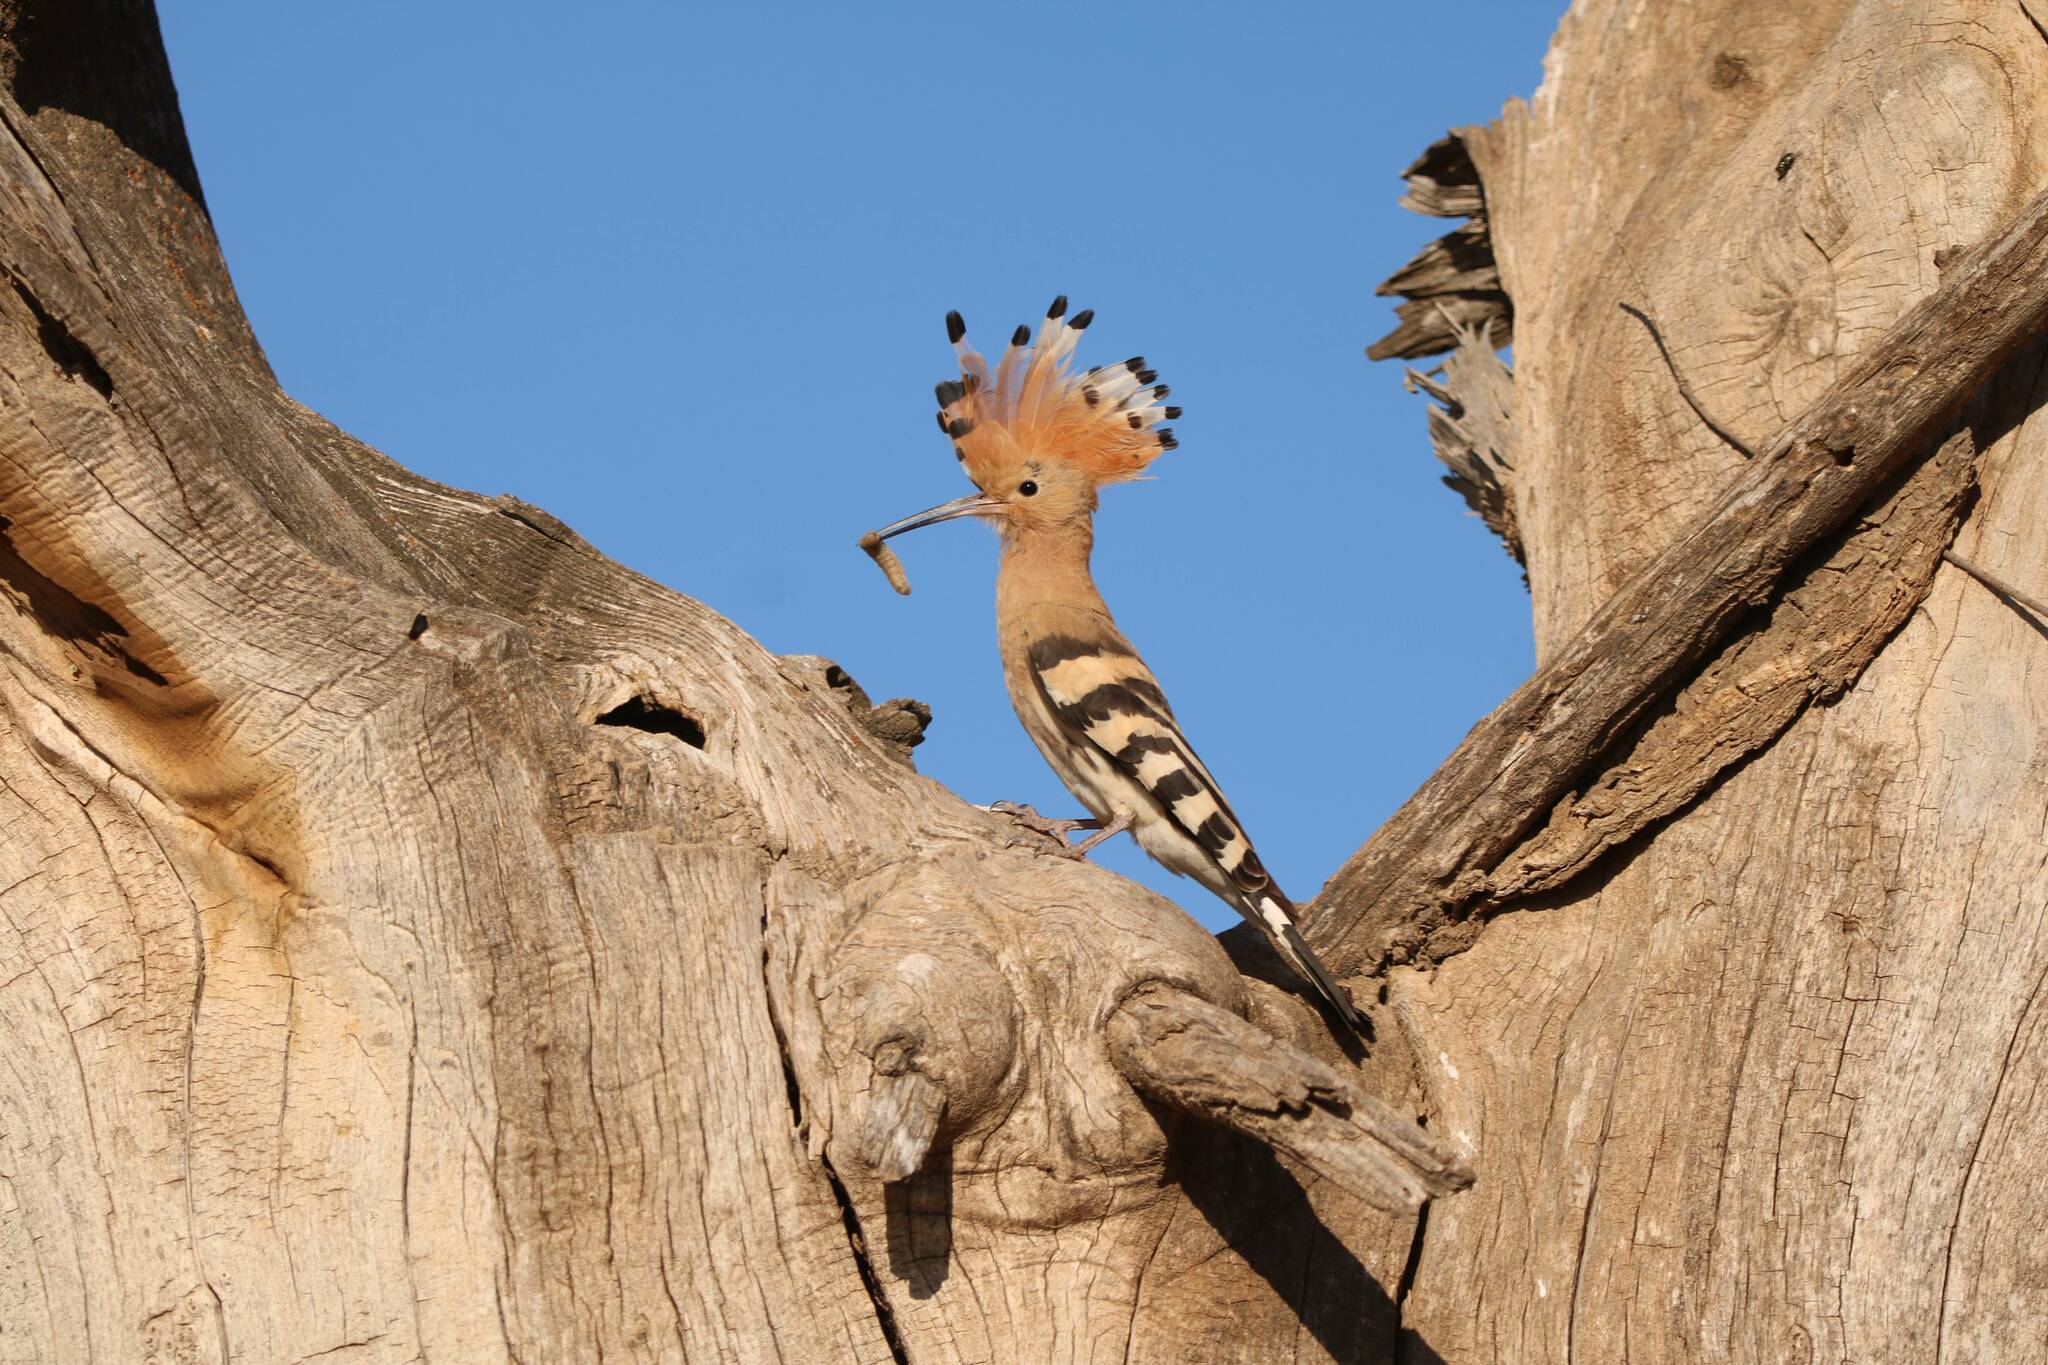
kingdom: Animalia
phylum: Chordata
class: Aves
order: Bucerotiformes
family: Upupidae
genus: Upupa
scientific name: Upupa epops
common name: Eurasian hoopoe
